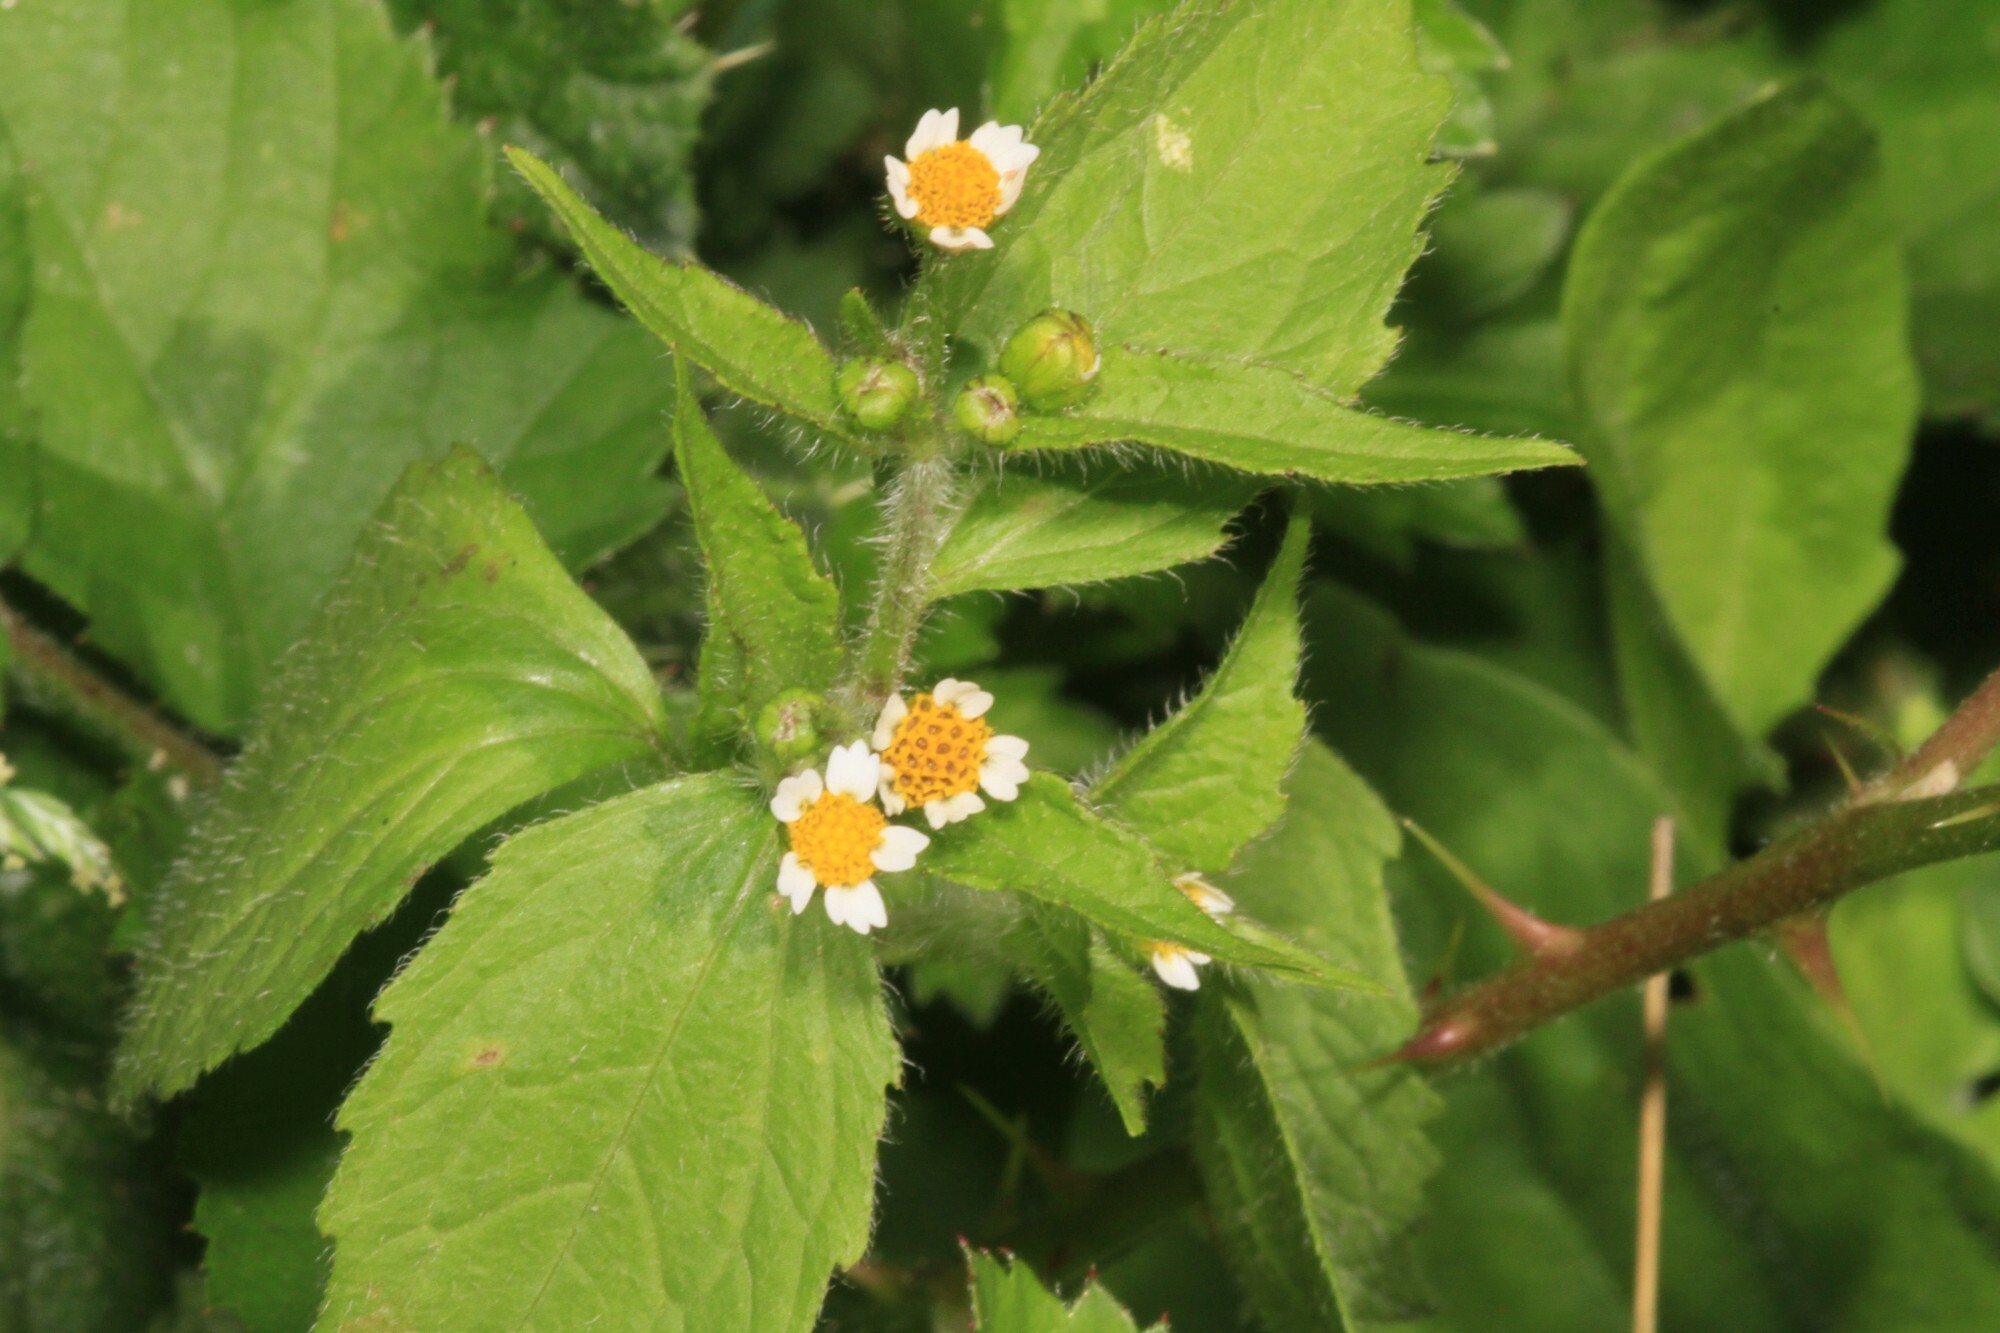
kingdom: Plantae
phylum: Tracheophyta
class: Magnoliopsida
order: Asterales
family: Asteraceae
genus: Galinsoga
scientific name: Galinsoga quadriradiata
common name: Shaggy soldier
